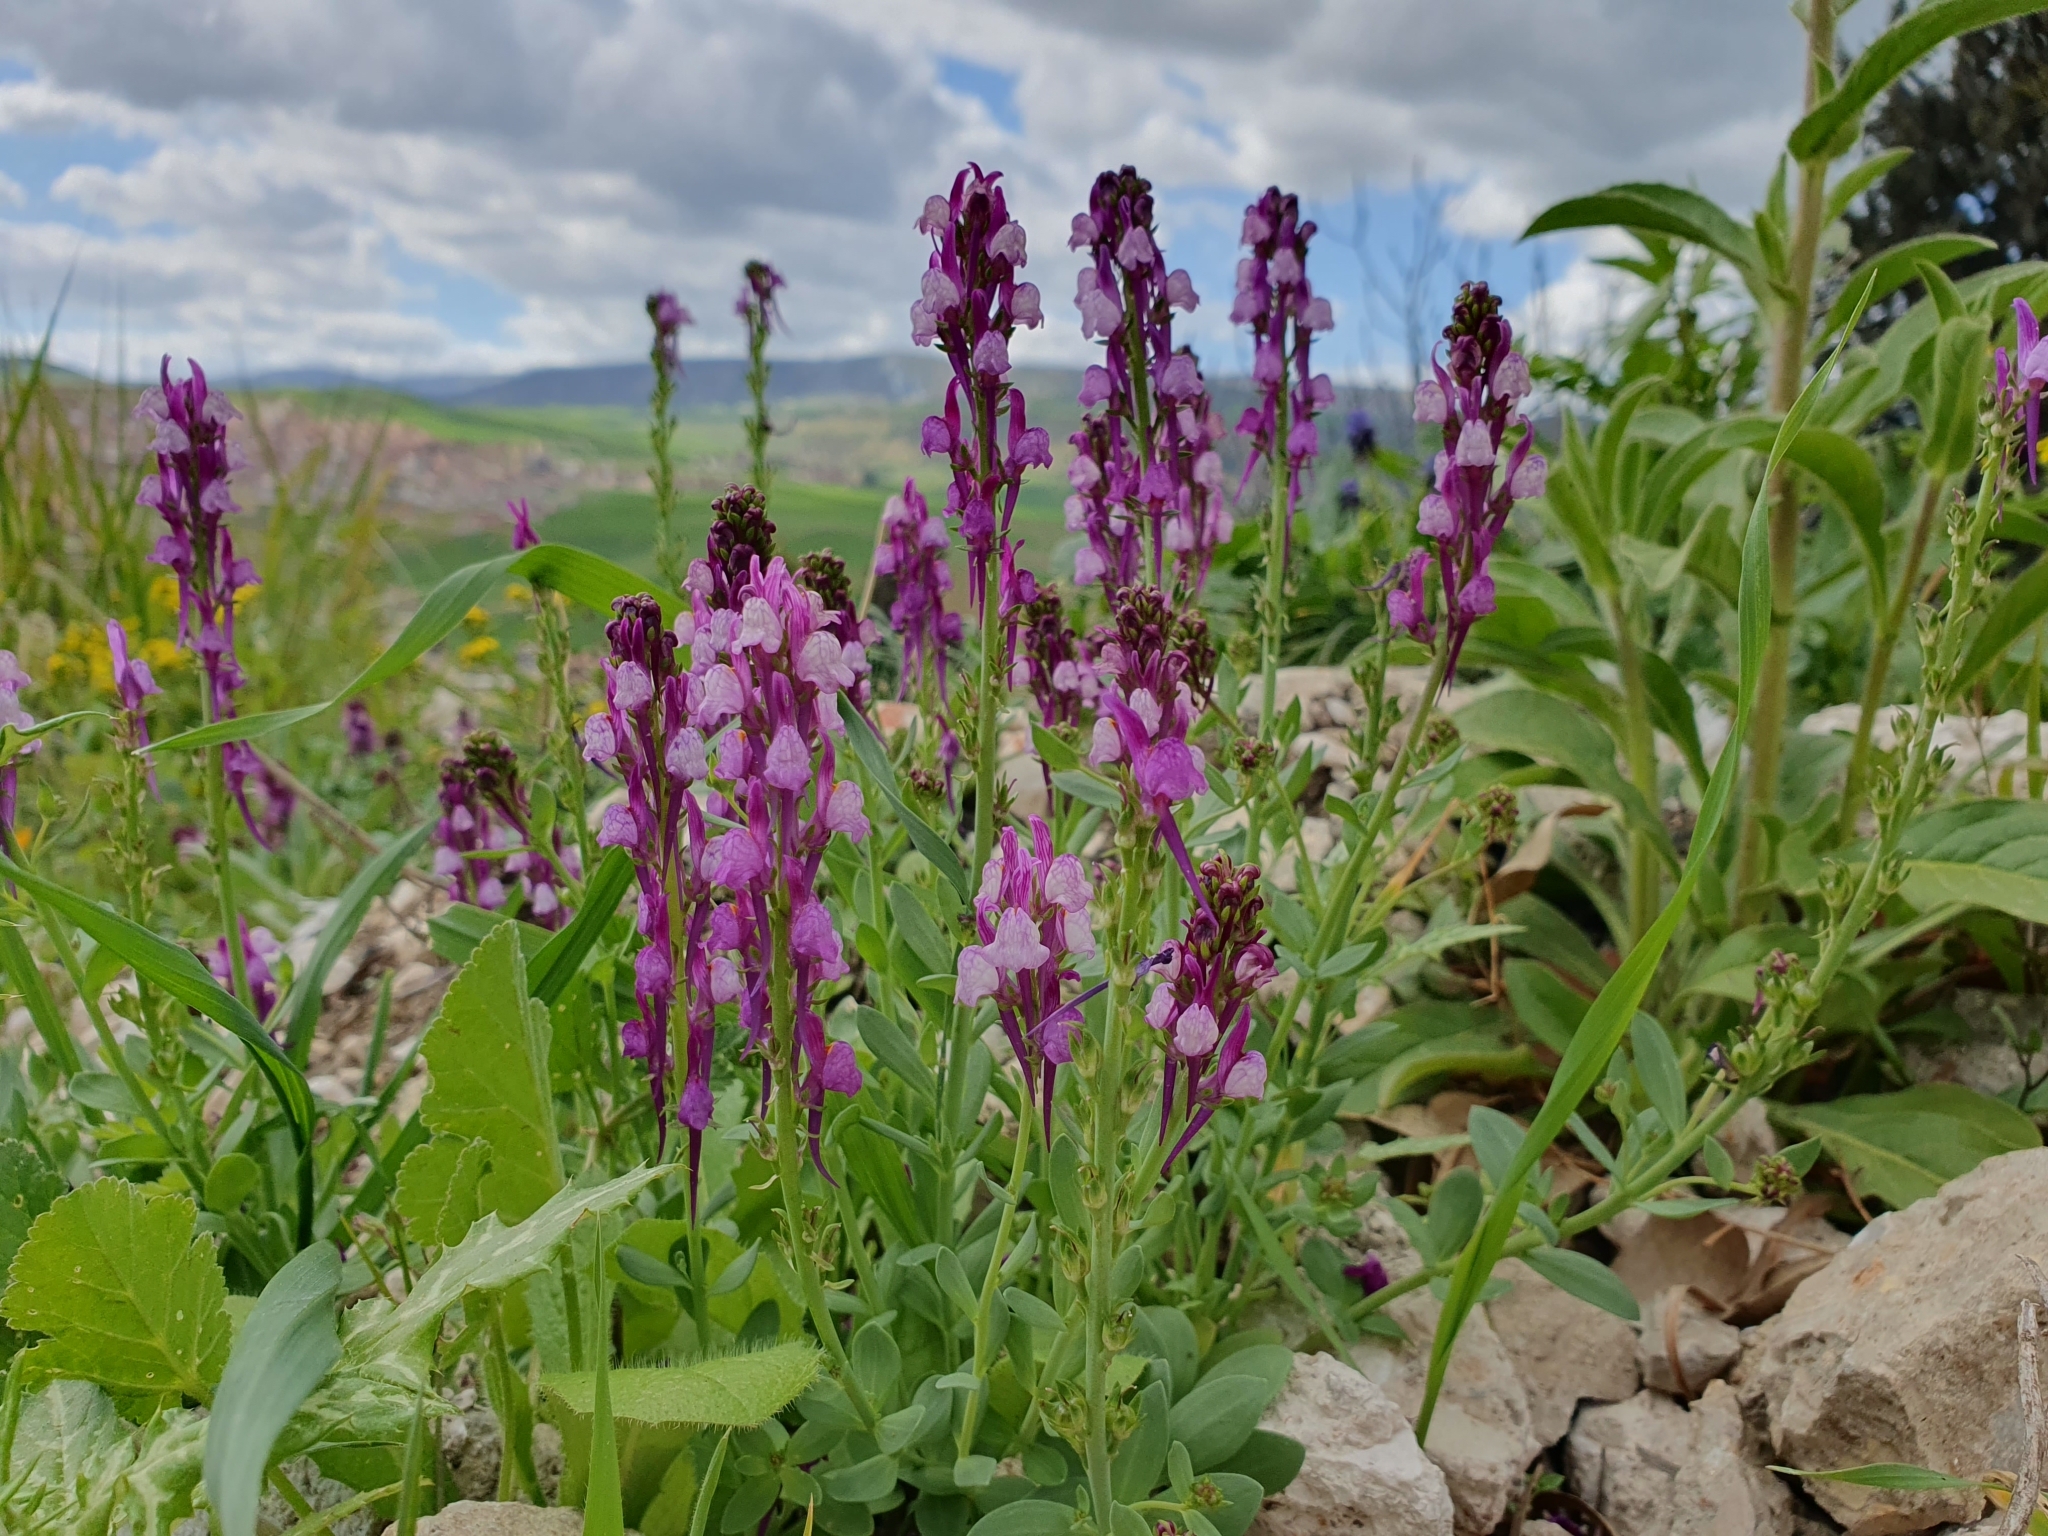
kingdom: Plantae
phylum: Tracheophyta
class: Magnoliopsida
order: Lamiales
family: Plantaginaceae
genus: Linaria
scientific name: Linaria virgata
